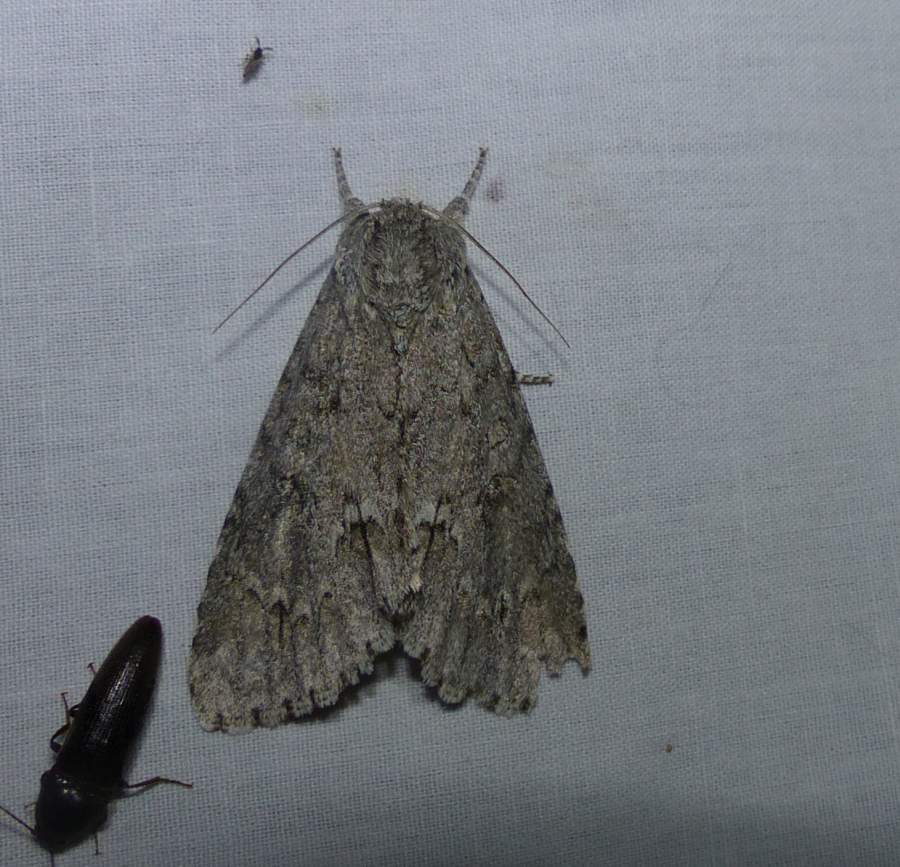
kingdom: Animalia
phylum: Arthropoda
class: Insecta
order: Lepidoptera
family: Noctuidae
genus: Acronicta
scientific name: Acronicta americana
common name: American dagger
